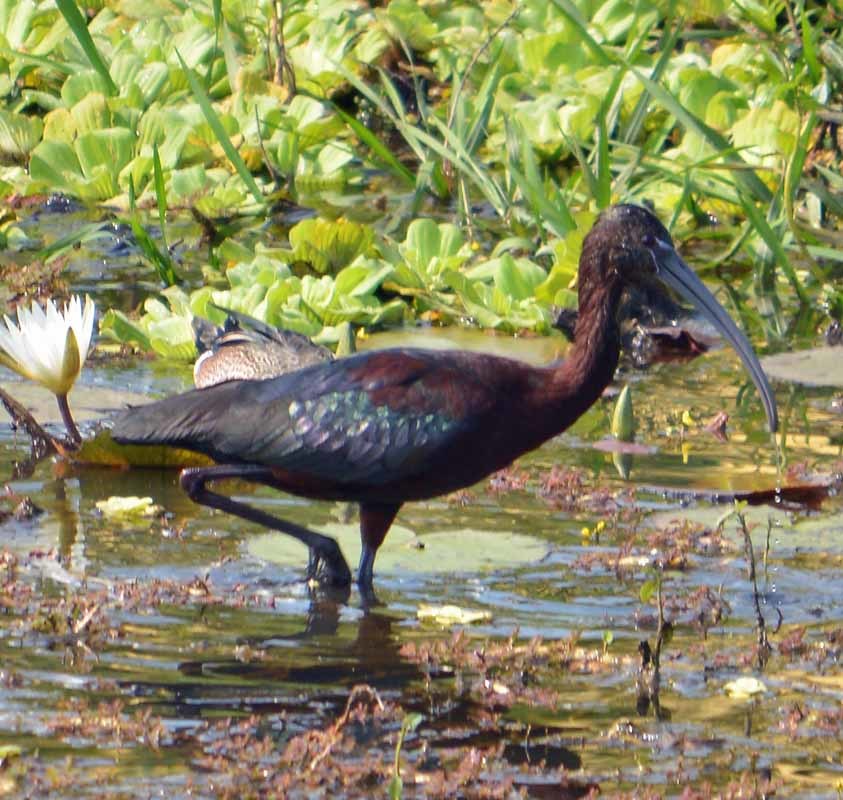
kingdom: Animalia
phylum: Chordata
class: Aves
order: Pelecaniformes
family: Threskiornithidae
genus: Plegadis
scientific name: Plegadis falcinellus
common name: Glossy ibis
